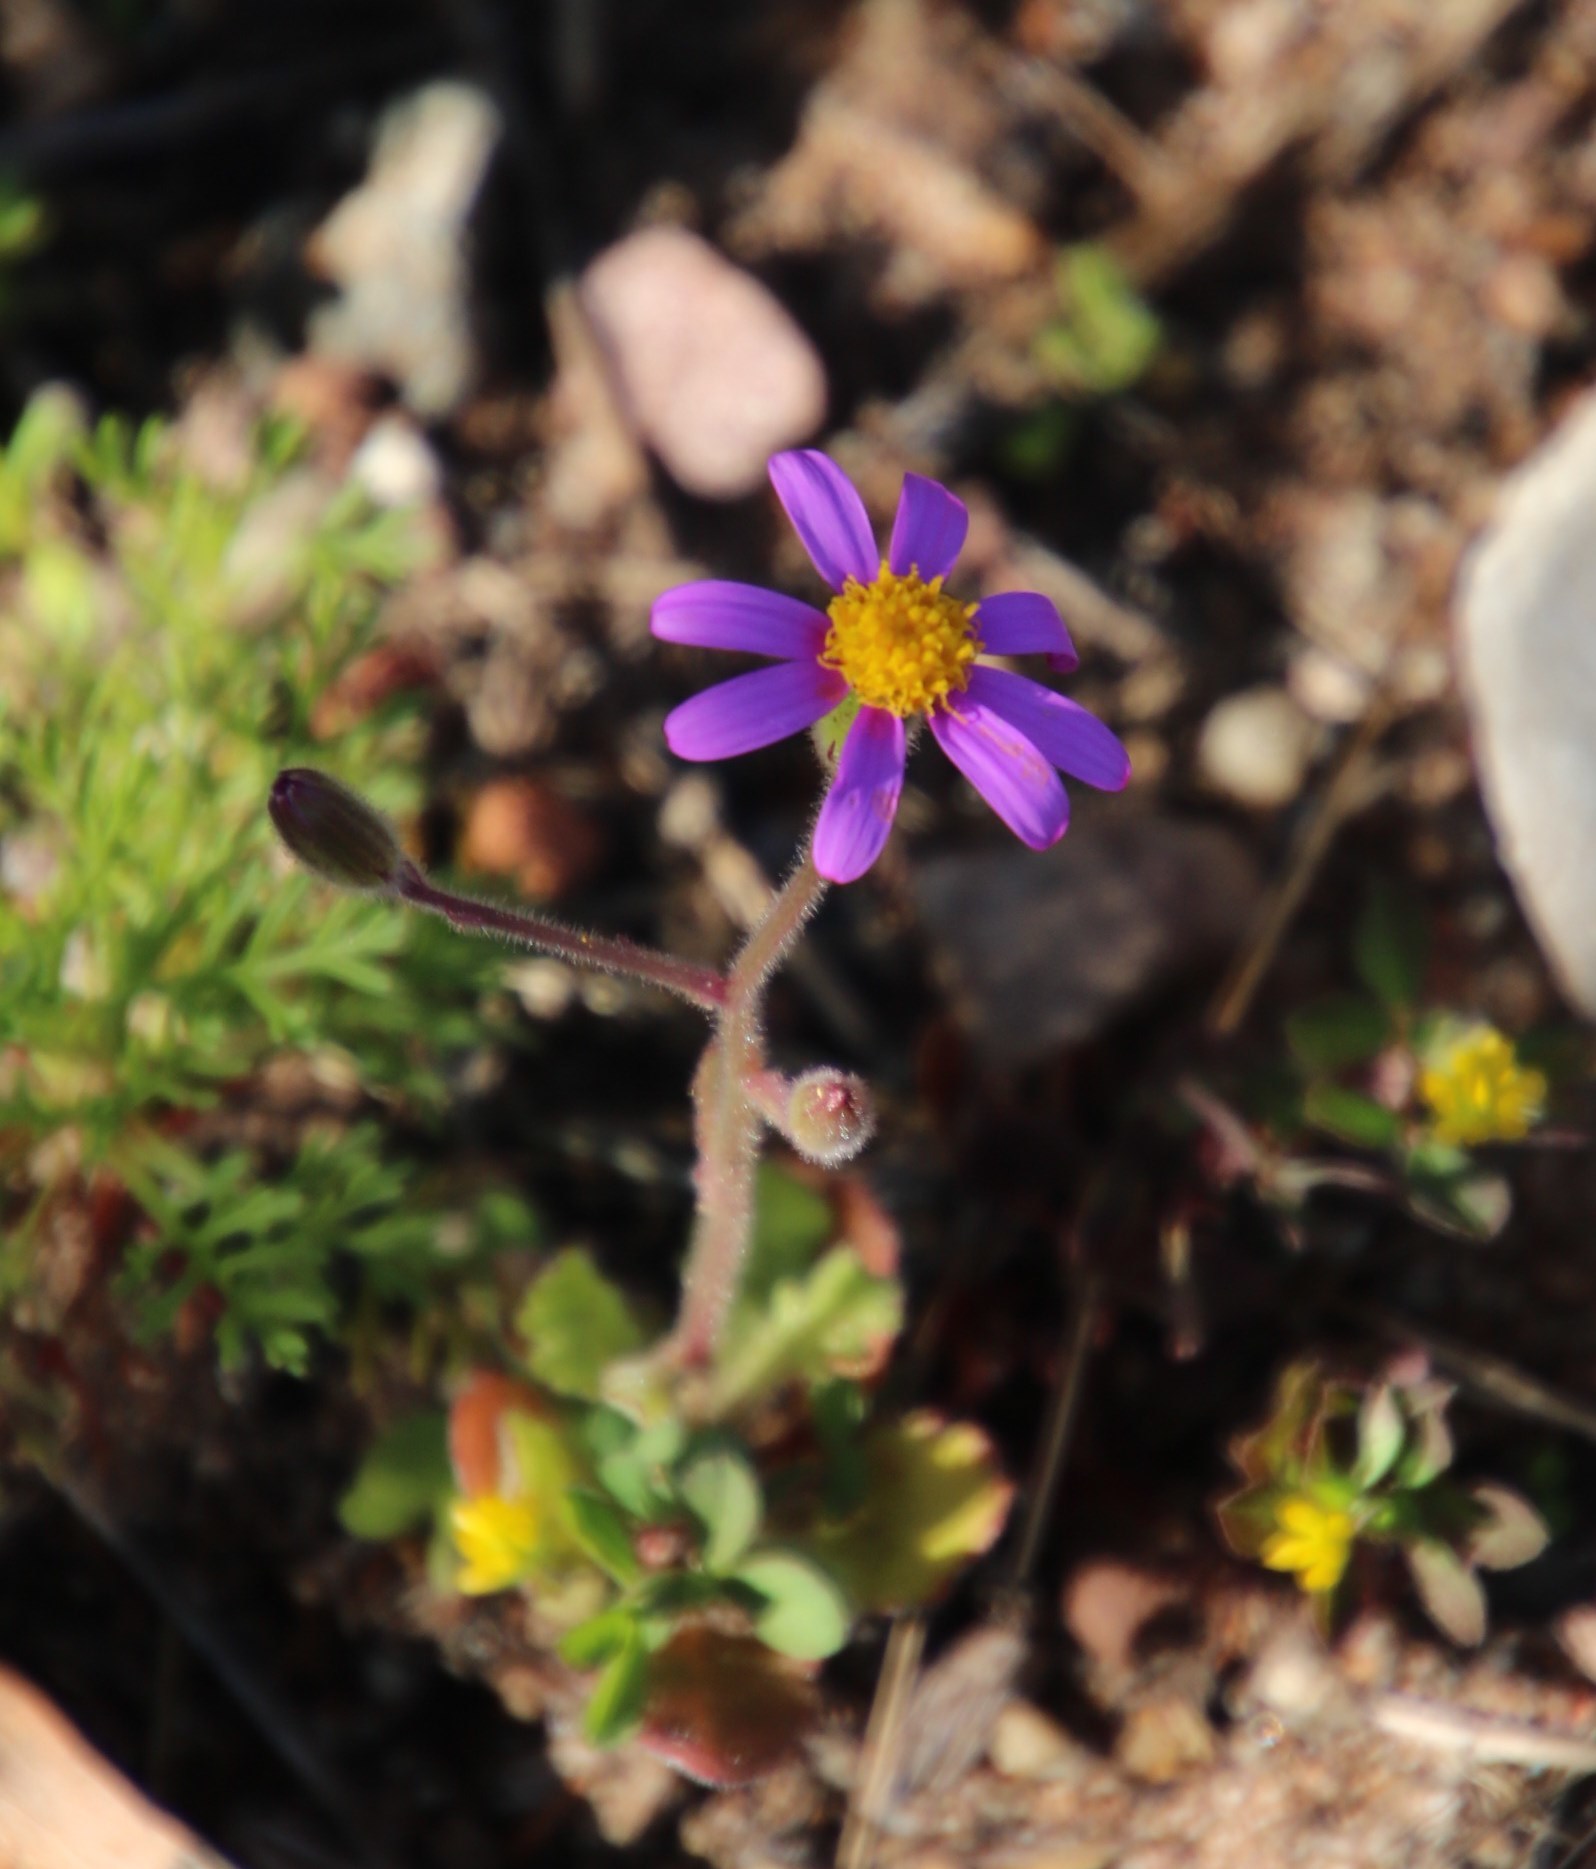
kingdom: Plantae
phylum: Tracheophyta
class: Magnoliopsida
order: Asterales
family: Asteraceae
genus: Senecio
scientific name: Senecio arenarius
